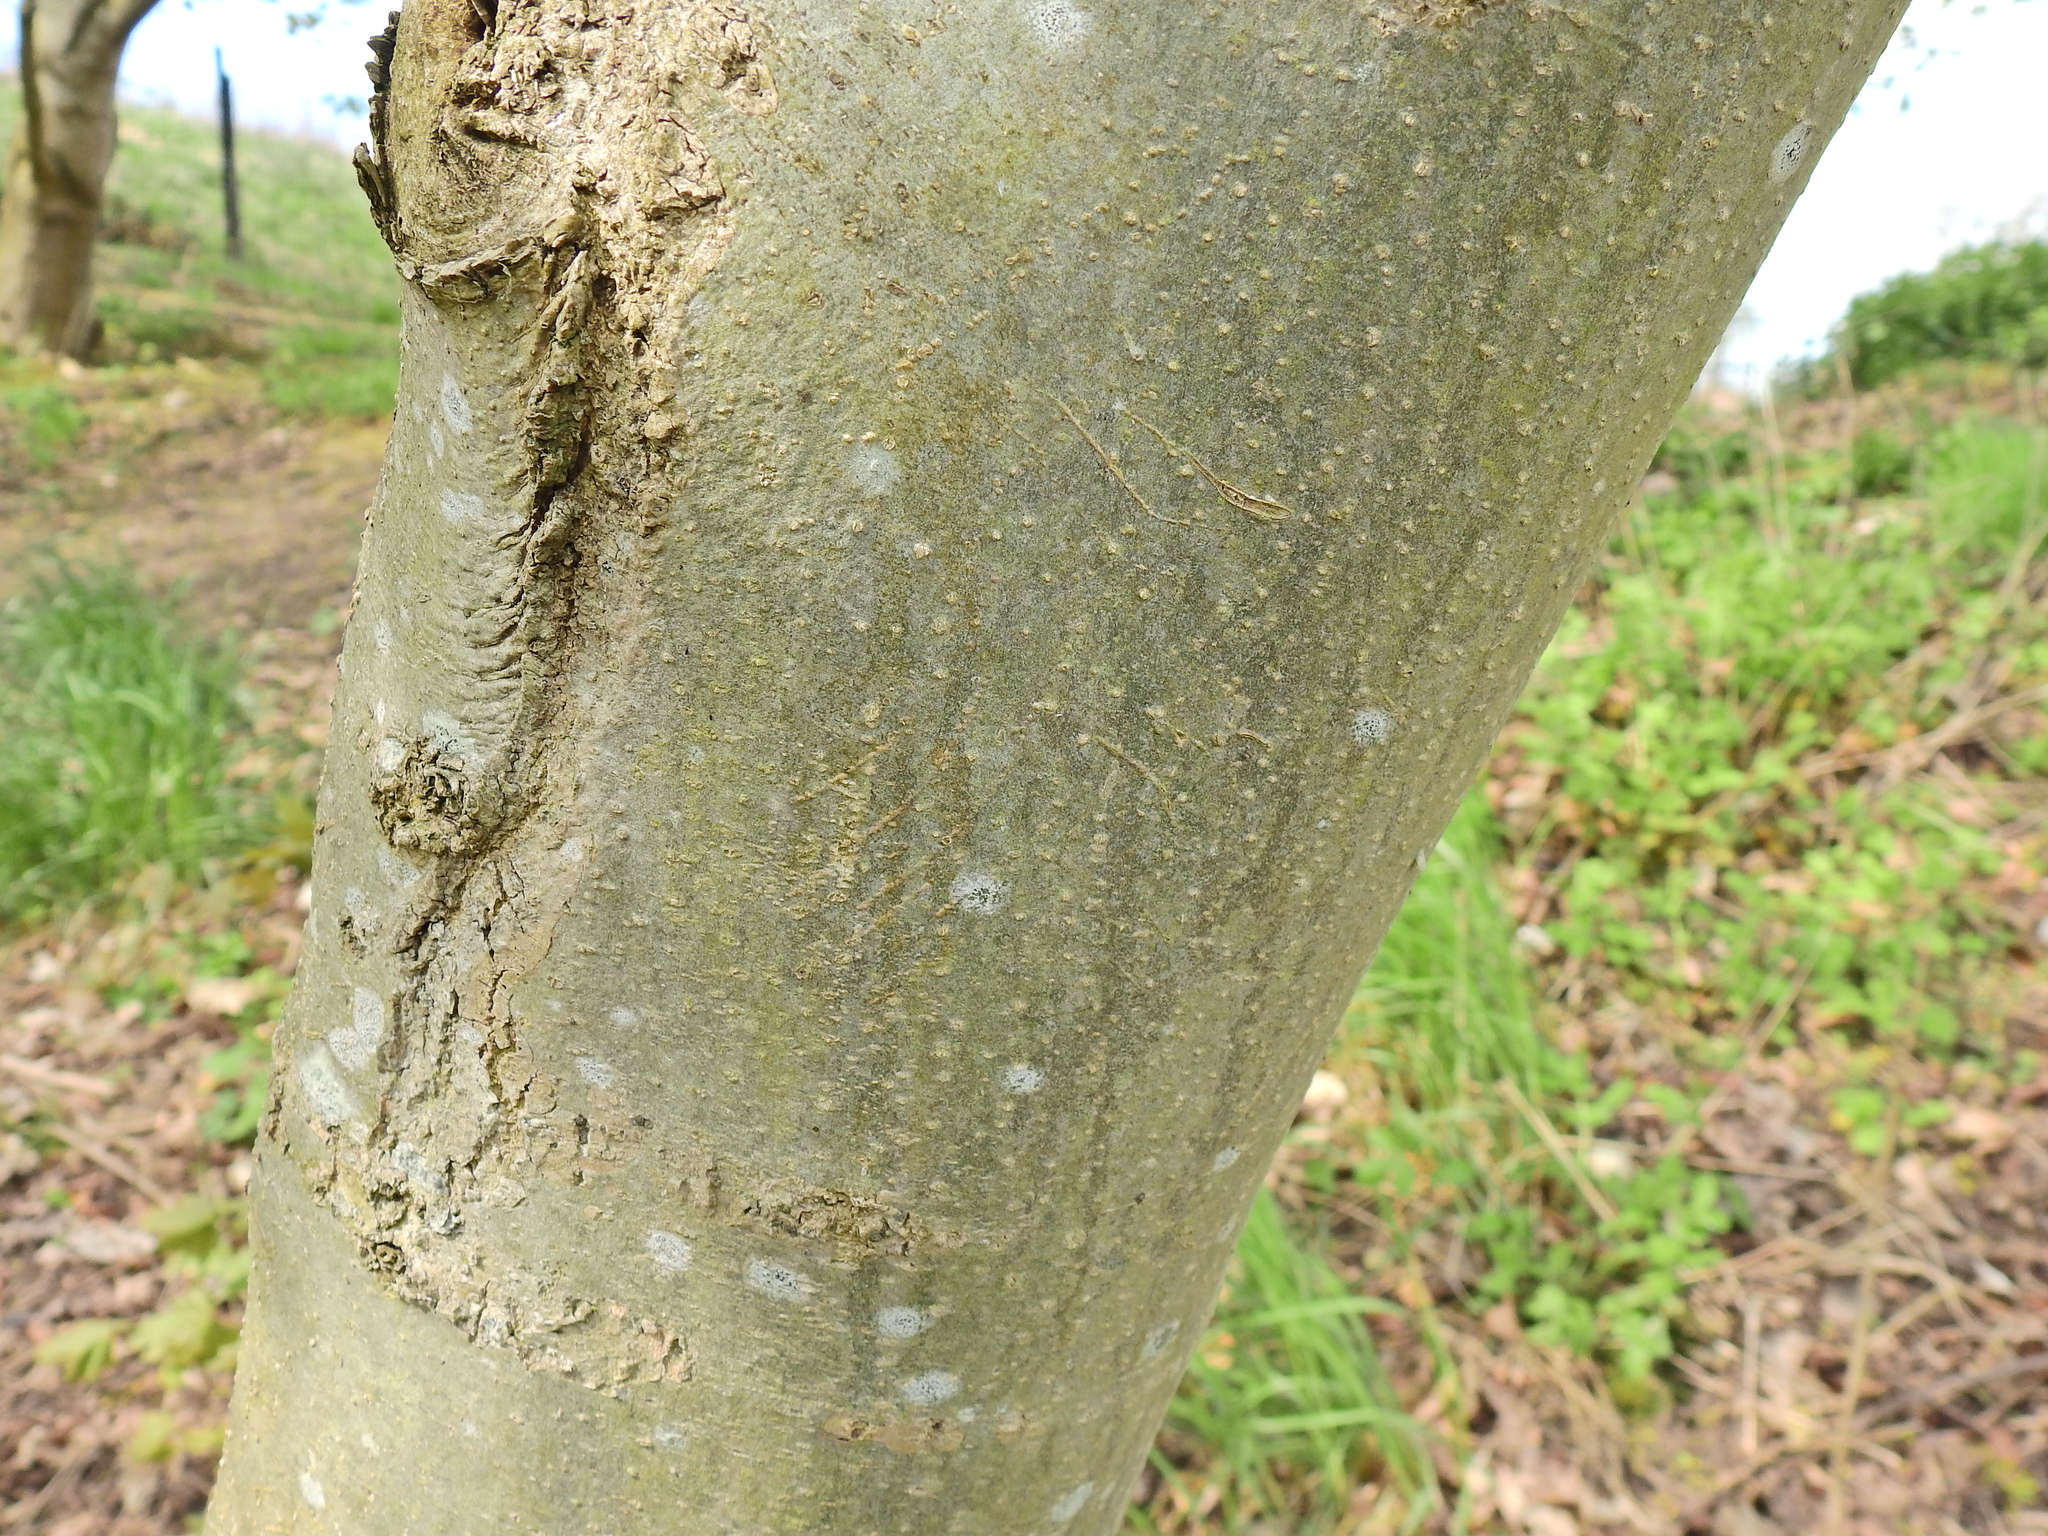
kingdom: Plantae
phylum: Tracheophyta
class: Magnoliopsida
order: Lamiales
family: Oleaceae
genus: Fraxinus
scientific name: Fraxinus excelsior
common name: European ash
